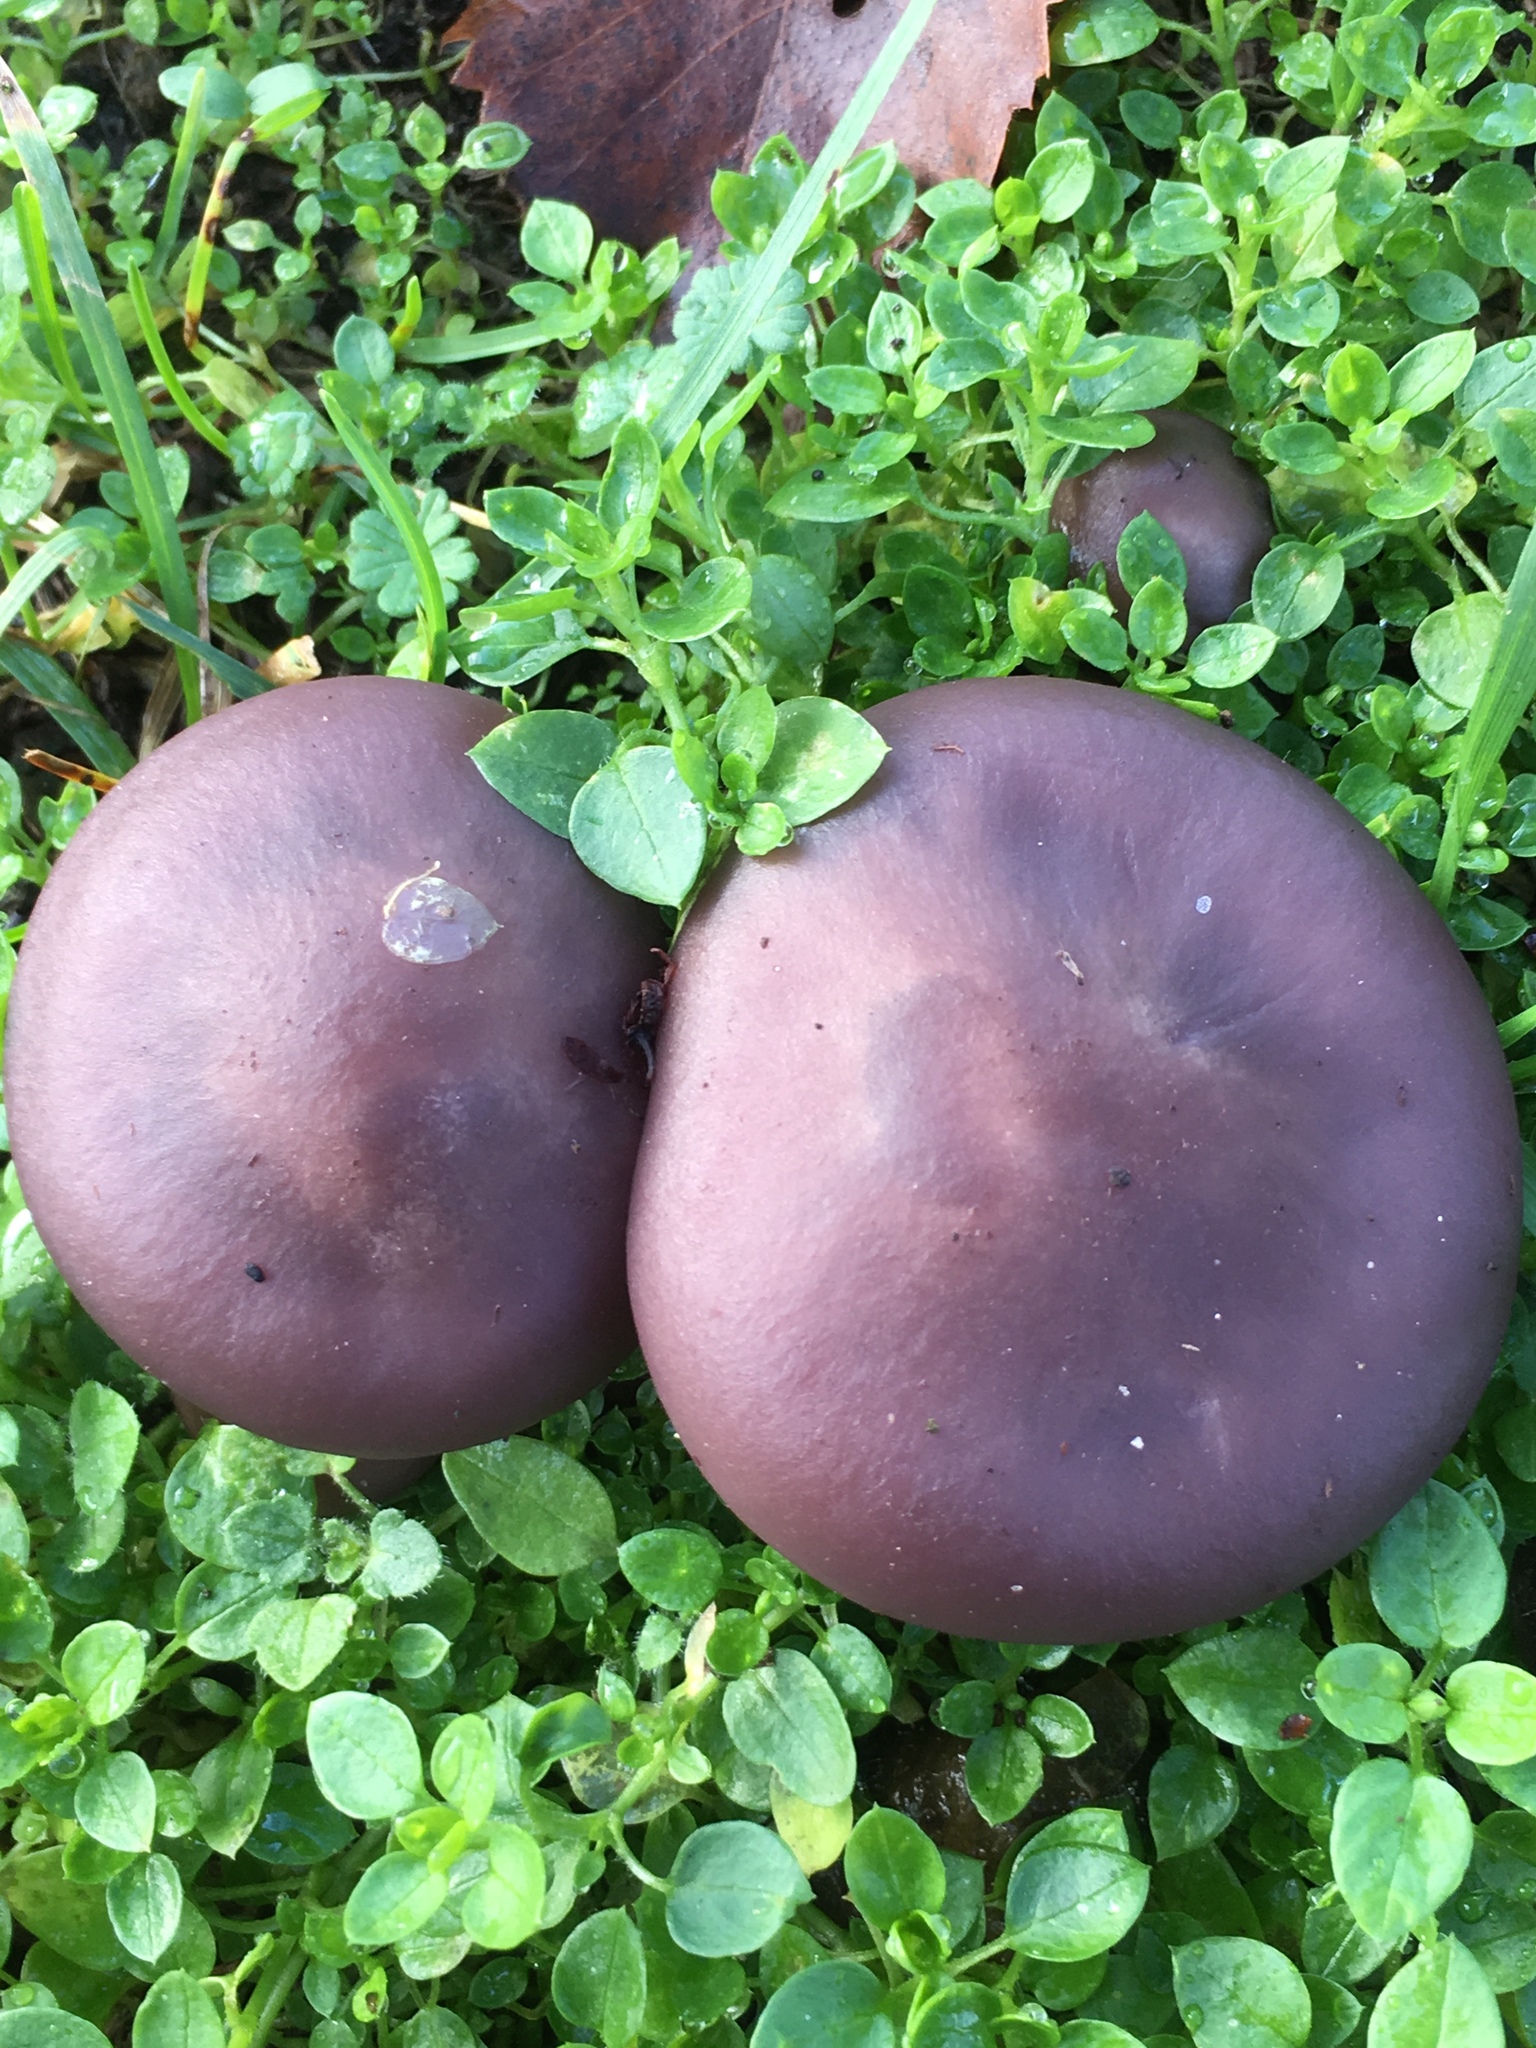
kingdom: Fungi
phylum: Basidiomycota
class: Agaricomycetes
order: Agaricales
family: Tricholomataceae
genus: Collybia
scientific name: Collybia
